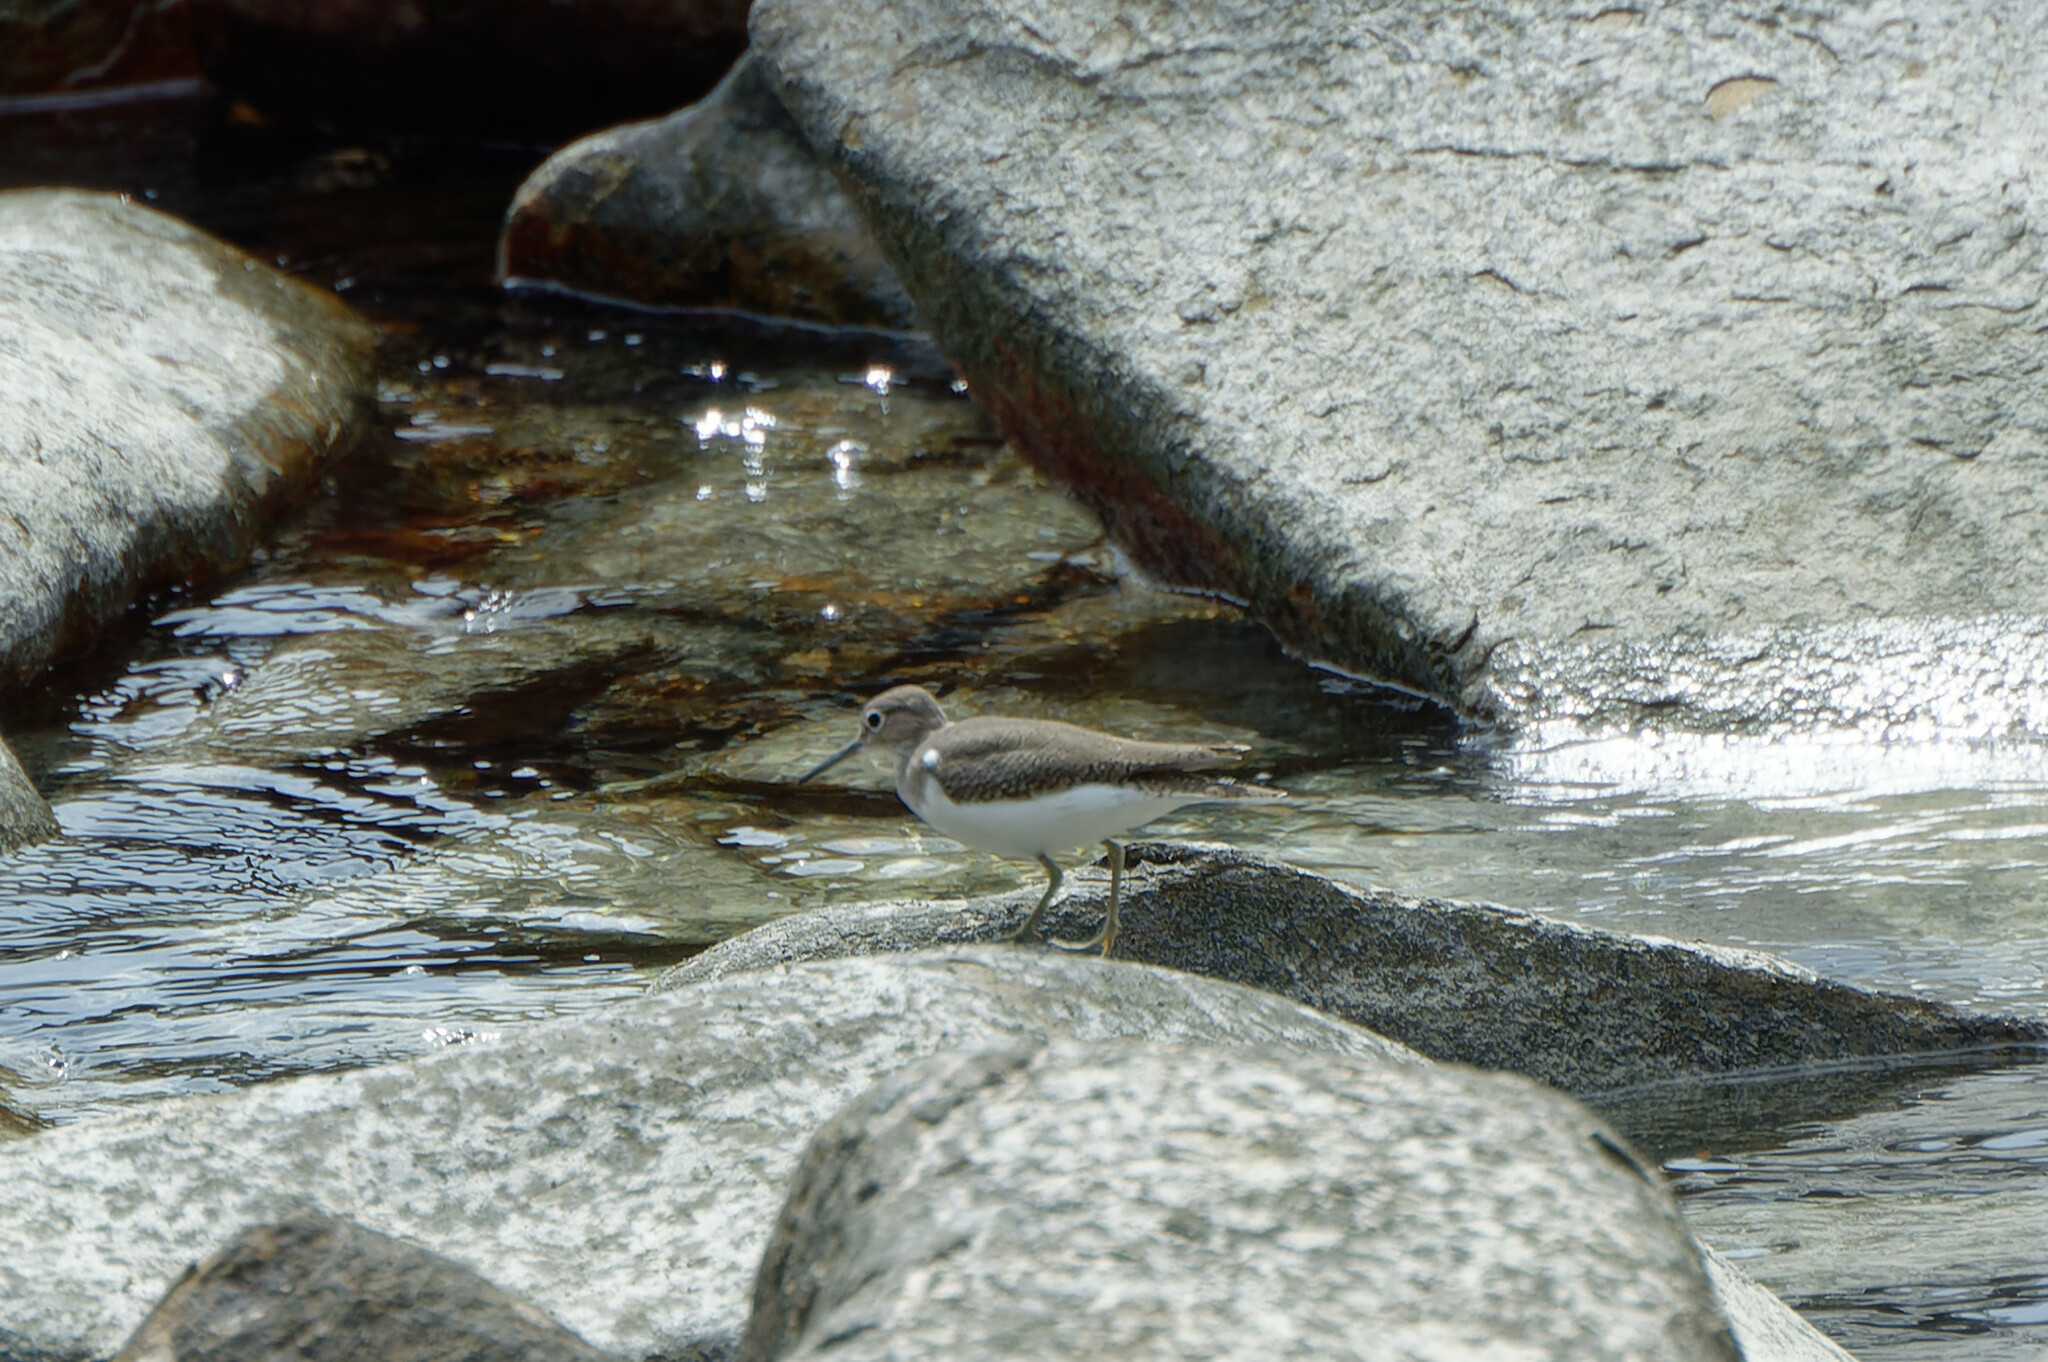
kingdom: Animalia
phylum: Chordata
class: Aves
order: Charadriiformes
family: Scolopacidae
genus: Actitis
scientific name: Actitis hypoleucos
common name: Common sandpiper
